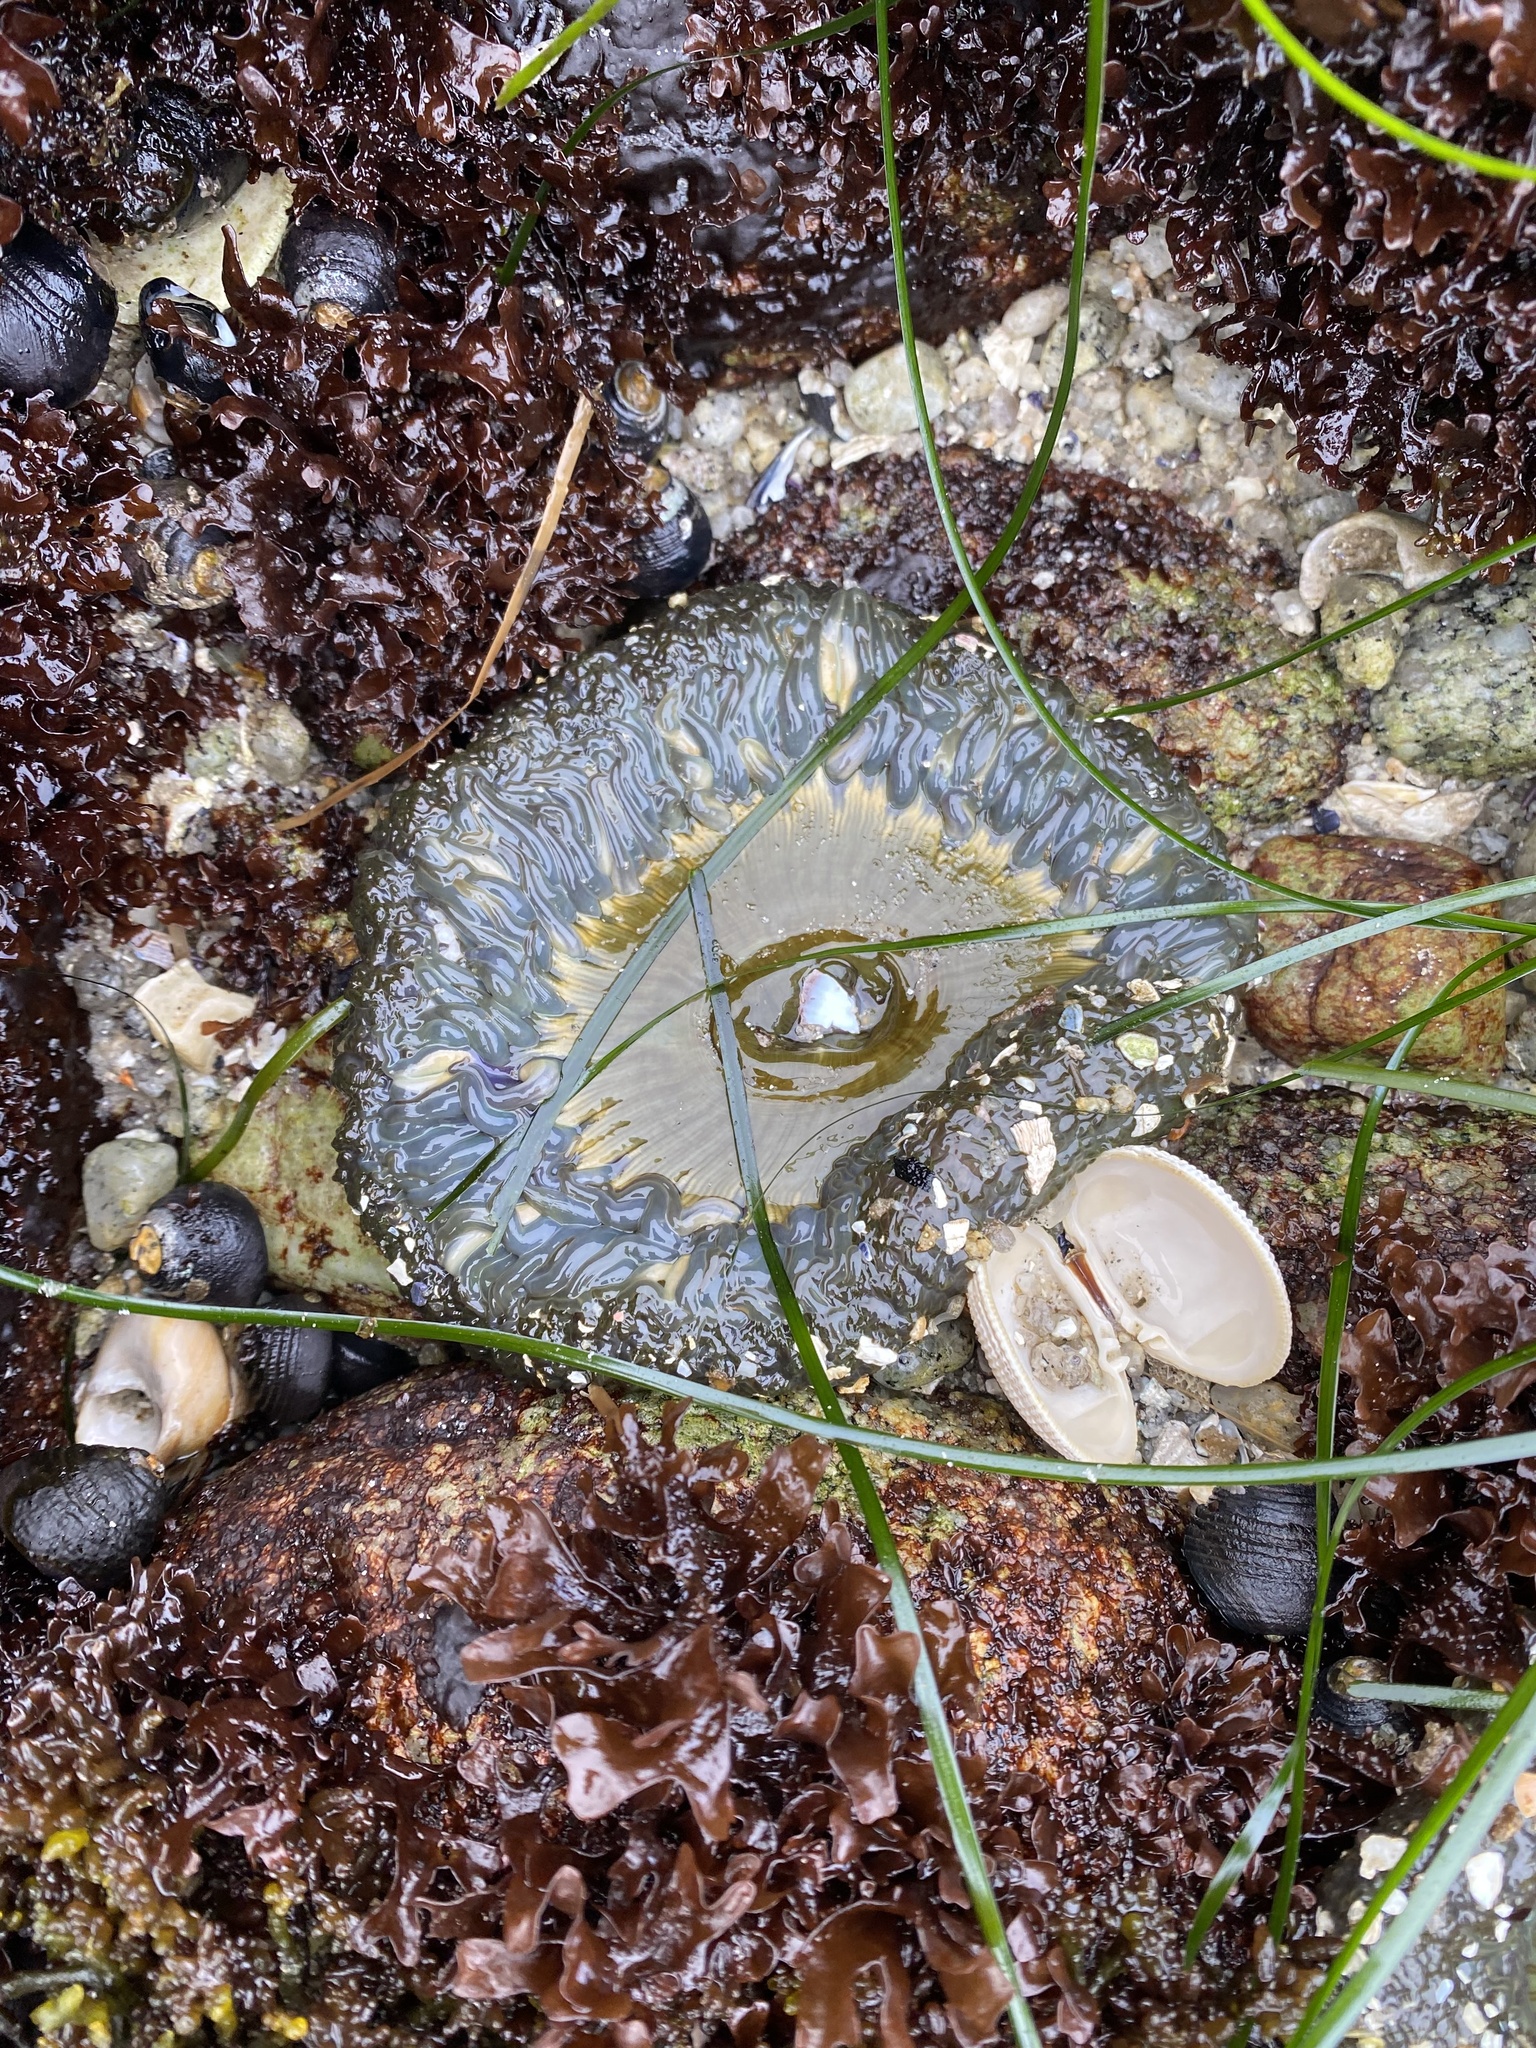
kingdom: Animalia
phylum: Cnidaria
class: Anthozoa
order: Actiniaria
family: Actiniidae
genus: Anthopleura
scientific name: Anthopleura sola
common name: Sun anemone
